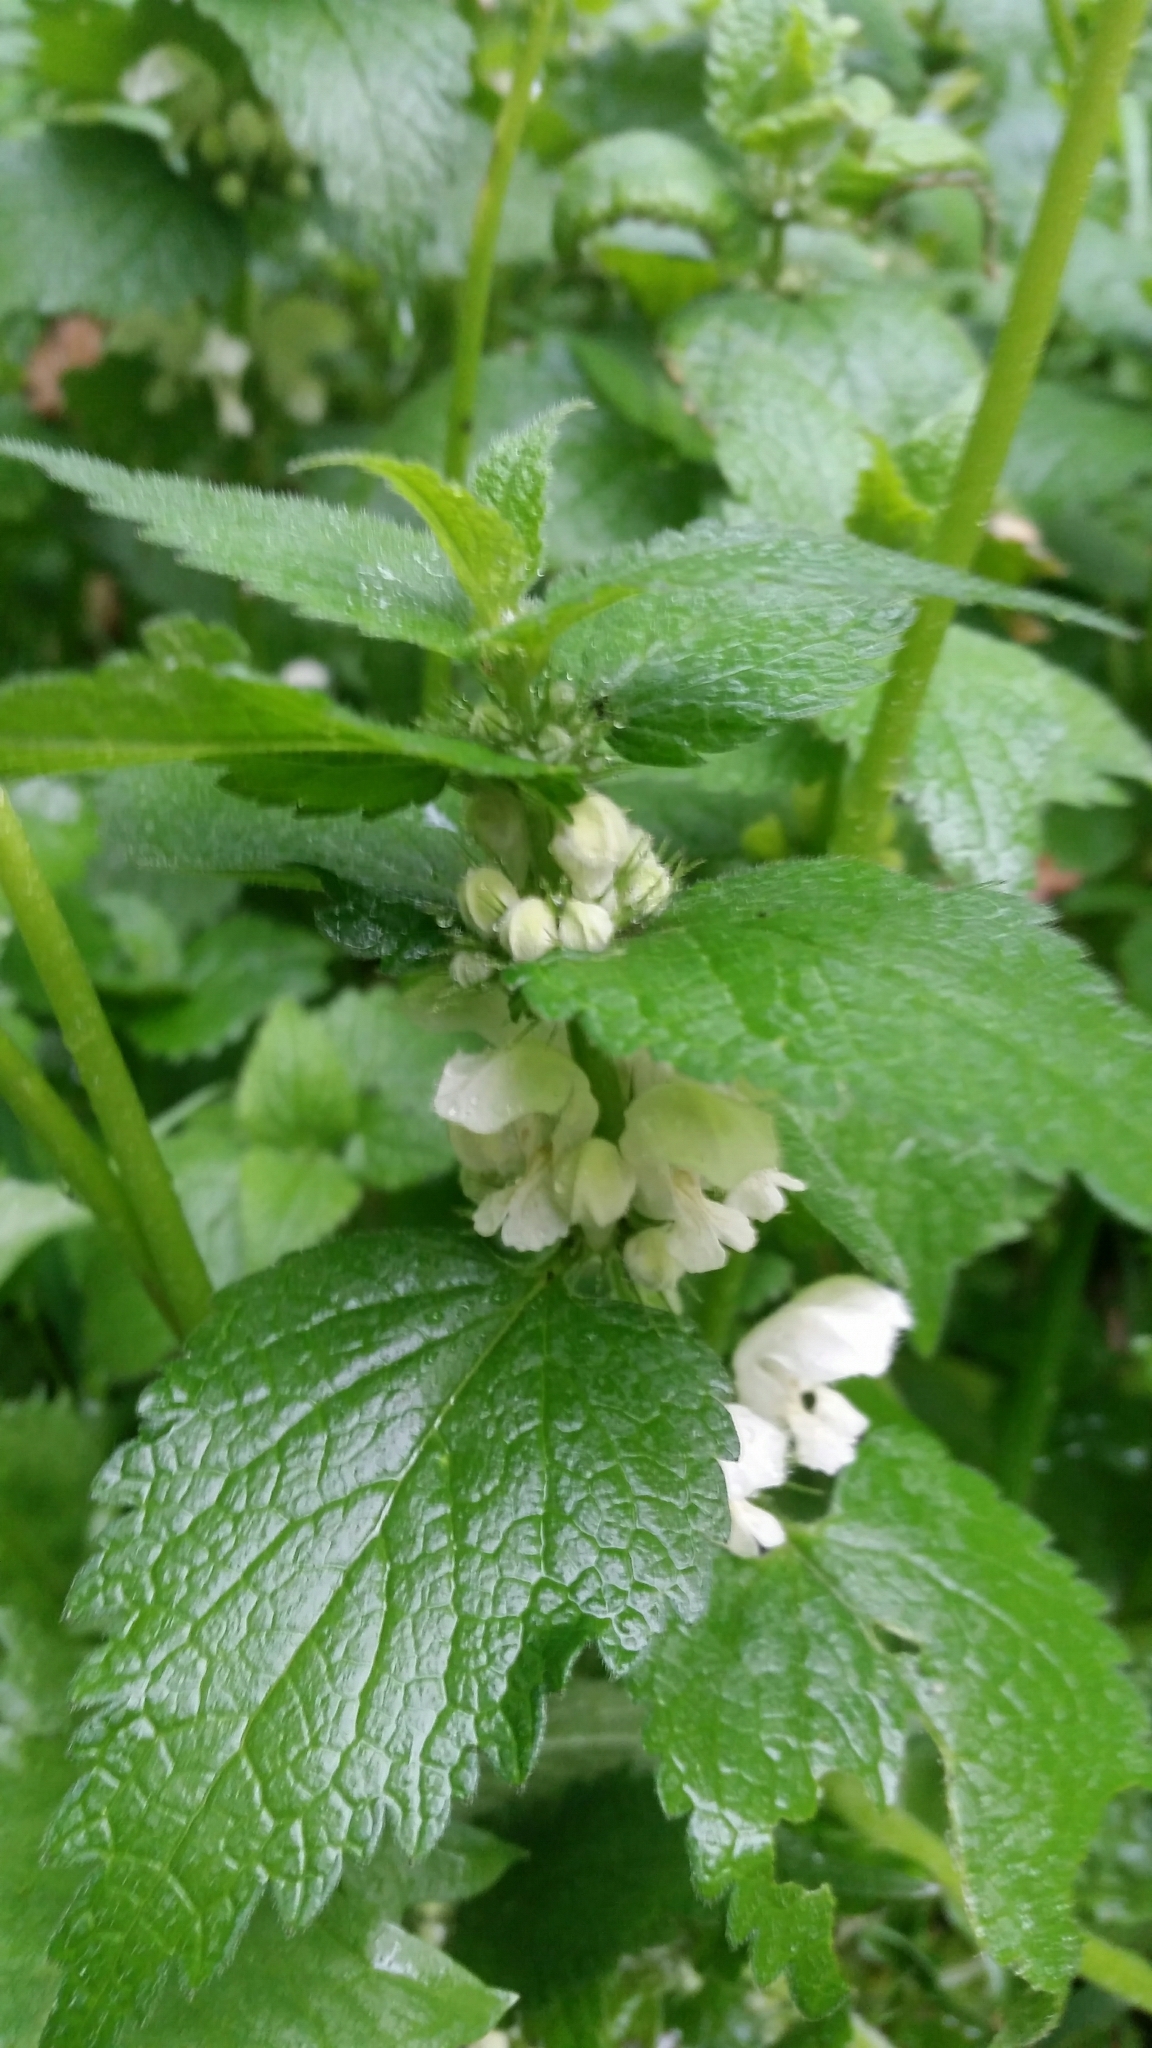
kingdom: Plantae
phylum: Tracheophyta
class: Magnoliopsida
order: Lamiales
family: Lamiaceae
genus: Lamium
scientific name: Lamium album
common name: White dead-nettle
